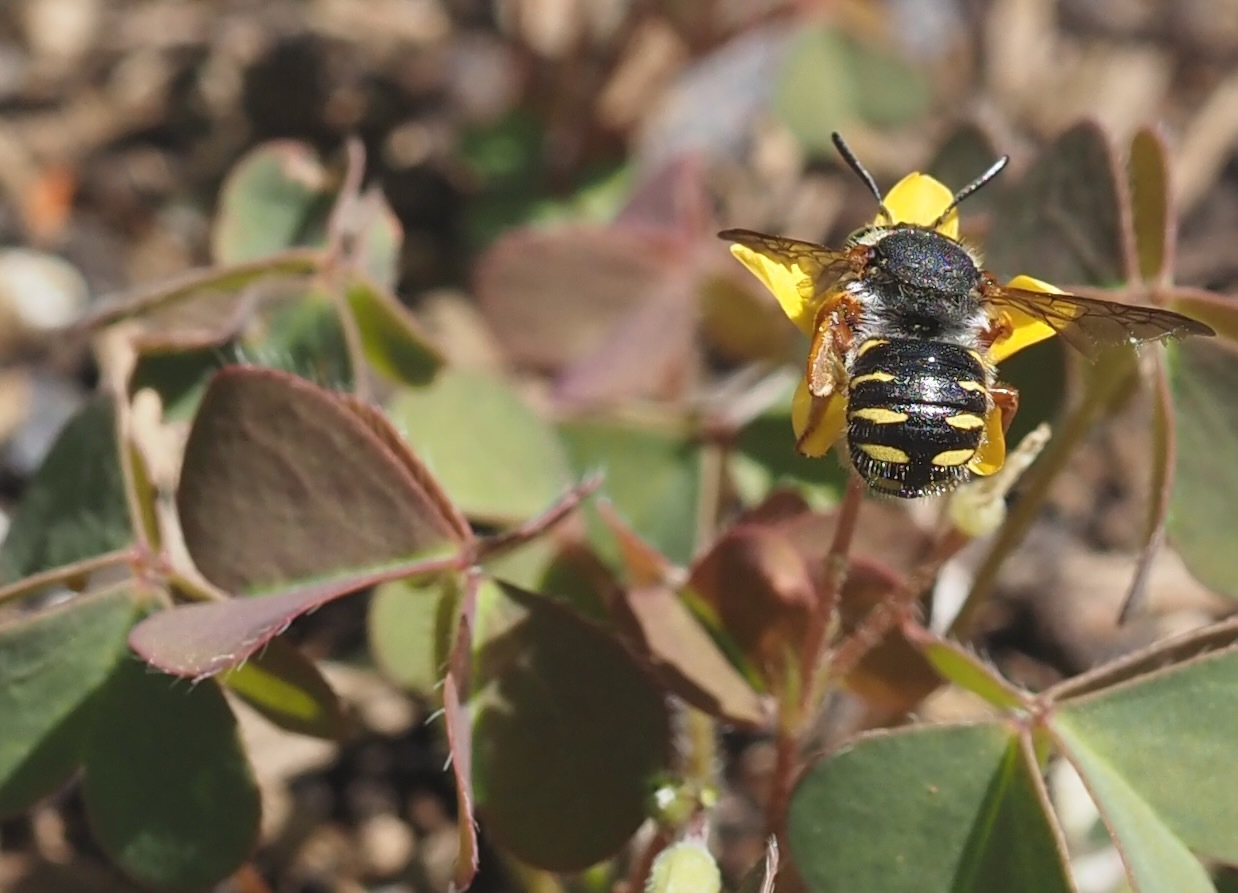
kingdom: Animalia
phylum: Arthropoda
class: Insecta
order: Hymenoptera
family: Megachilidae
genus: Anthidium
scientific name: Anthidium oblongatum
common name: Oblong wool carder bee
